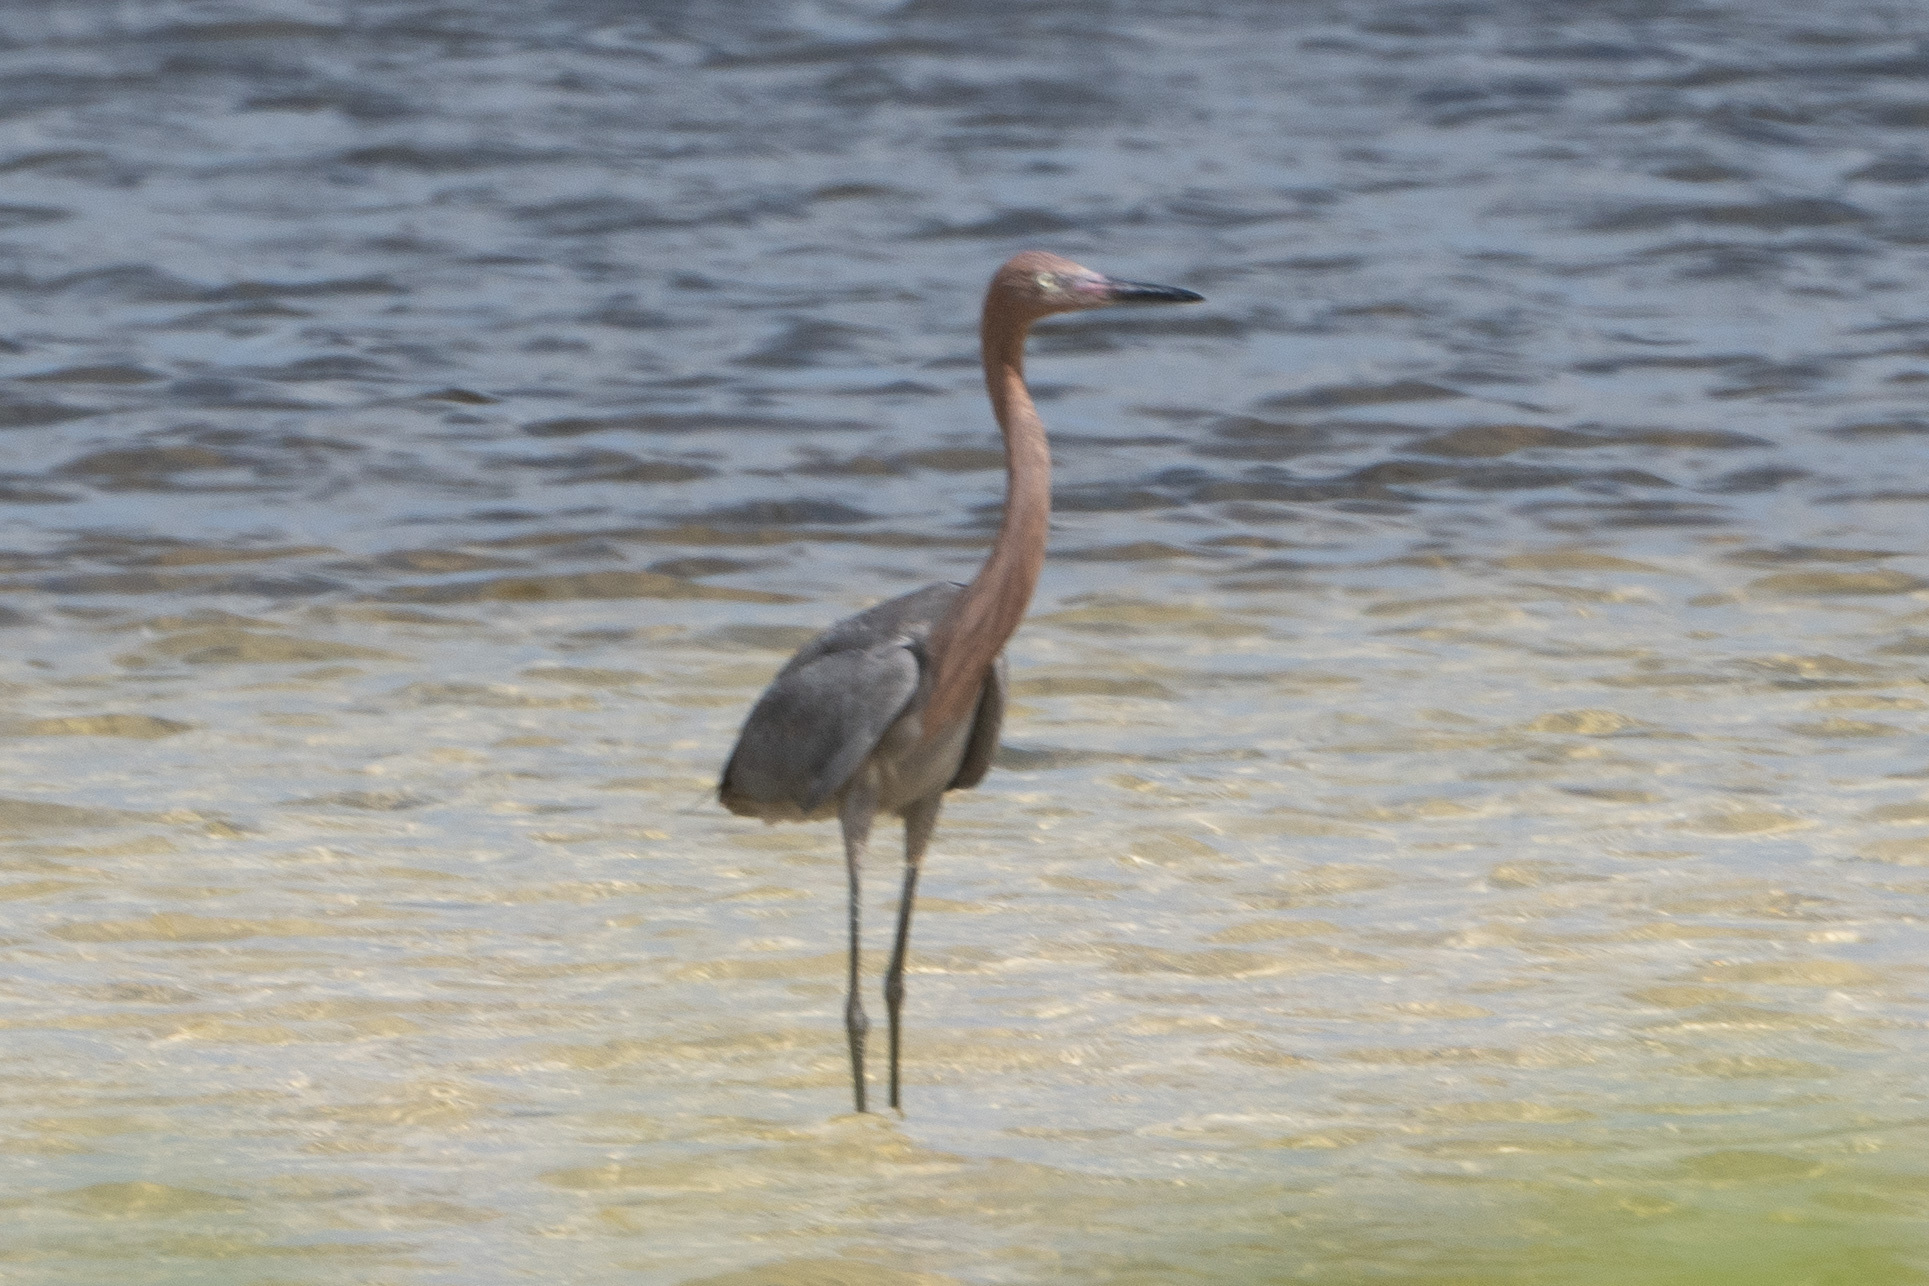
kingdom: Animalia
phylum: Chordata
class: Aves
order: Pelecaniformes
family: Ardeidae
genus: Egretta
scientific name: Egretta rufescens
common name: Reddish egret
